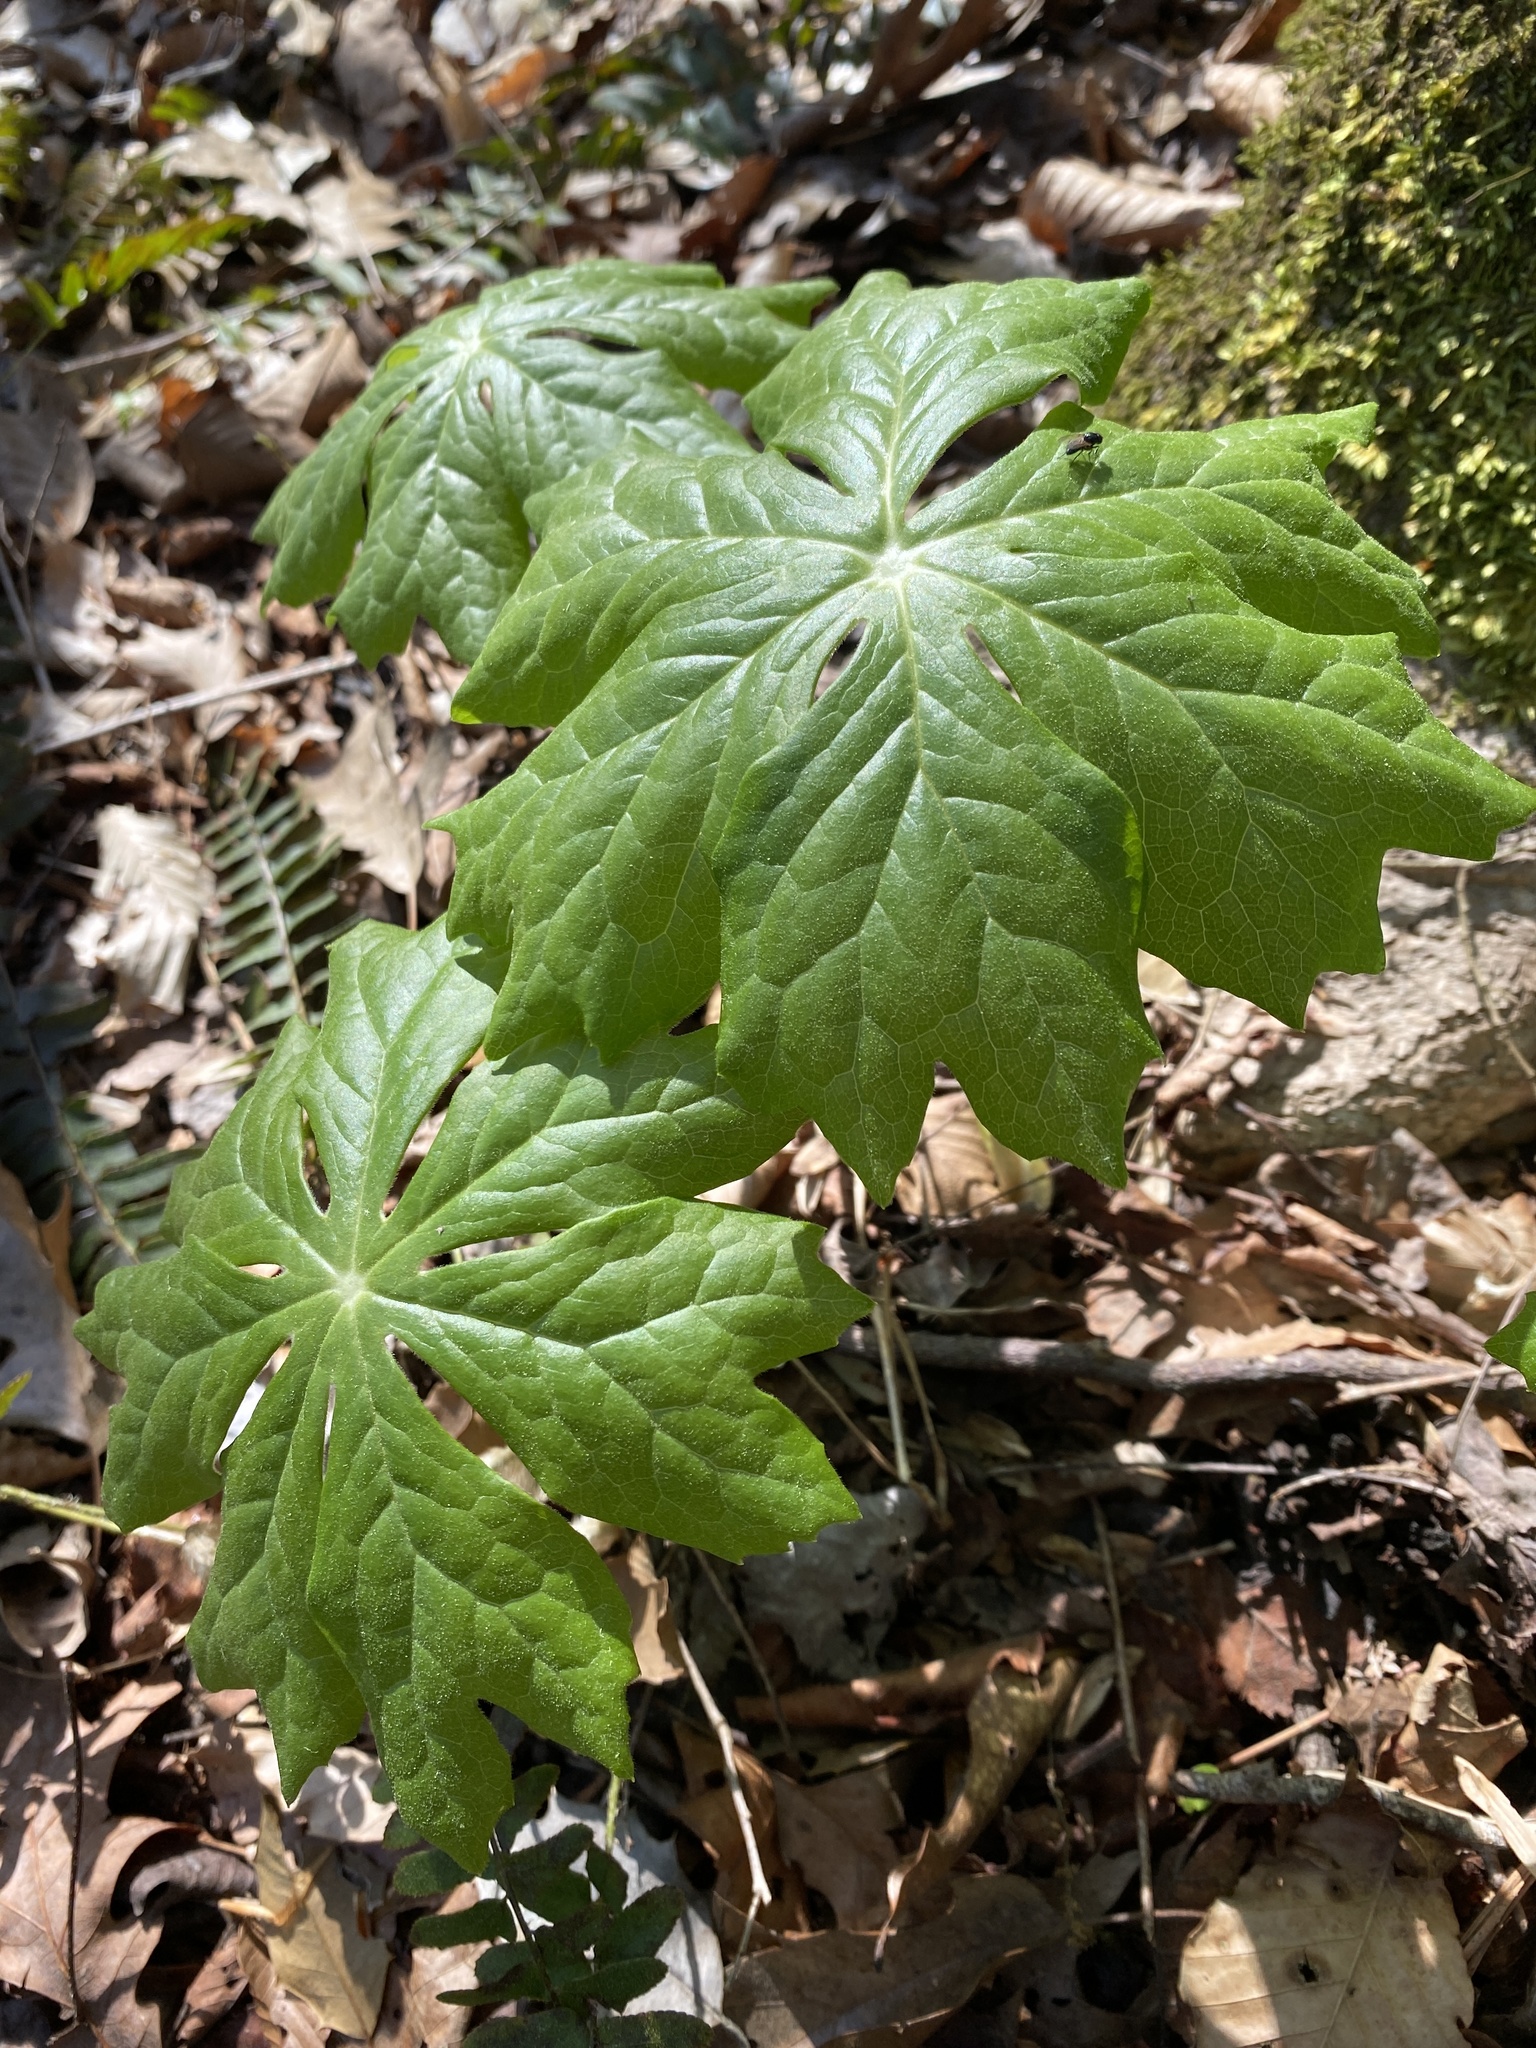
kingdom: Plantae
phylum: Tracheophyta
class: Magnoliopsida
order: Ranunculales
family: Berberidaceae
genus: Podophyllum
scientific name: Podophyllum peltatum
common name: Wild mandrake
